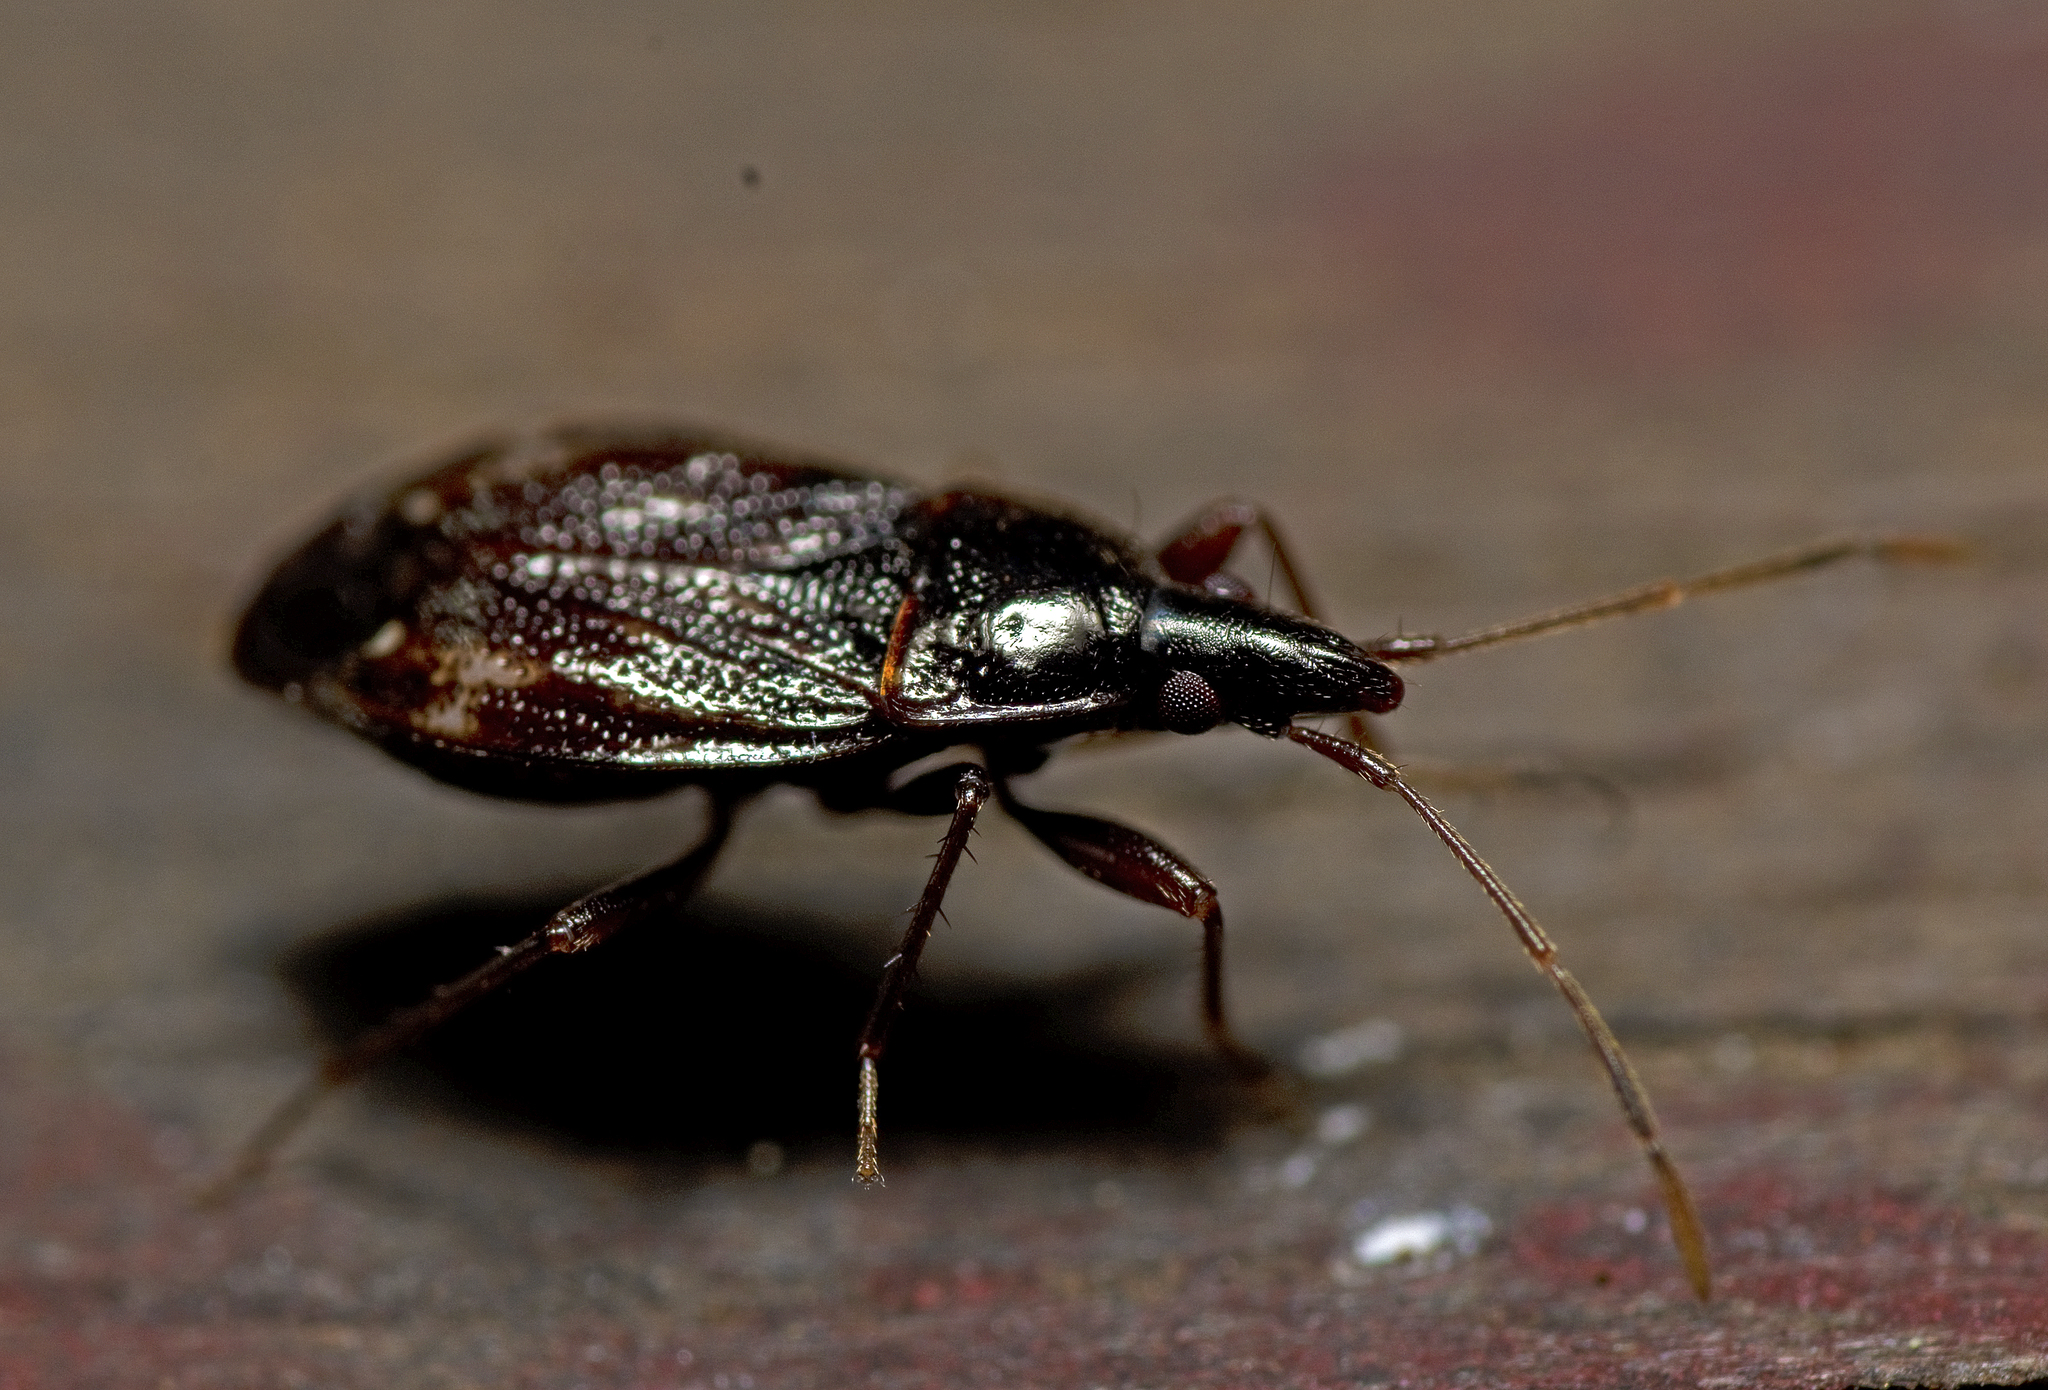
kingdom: Animalia
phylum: Arthropoda
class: Insecta
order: Hemiptera
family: Rhyparochromidae
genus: Myocara
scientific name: Myocara acuminatum
